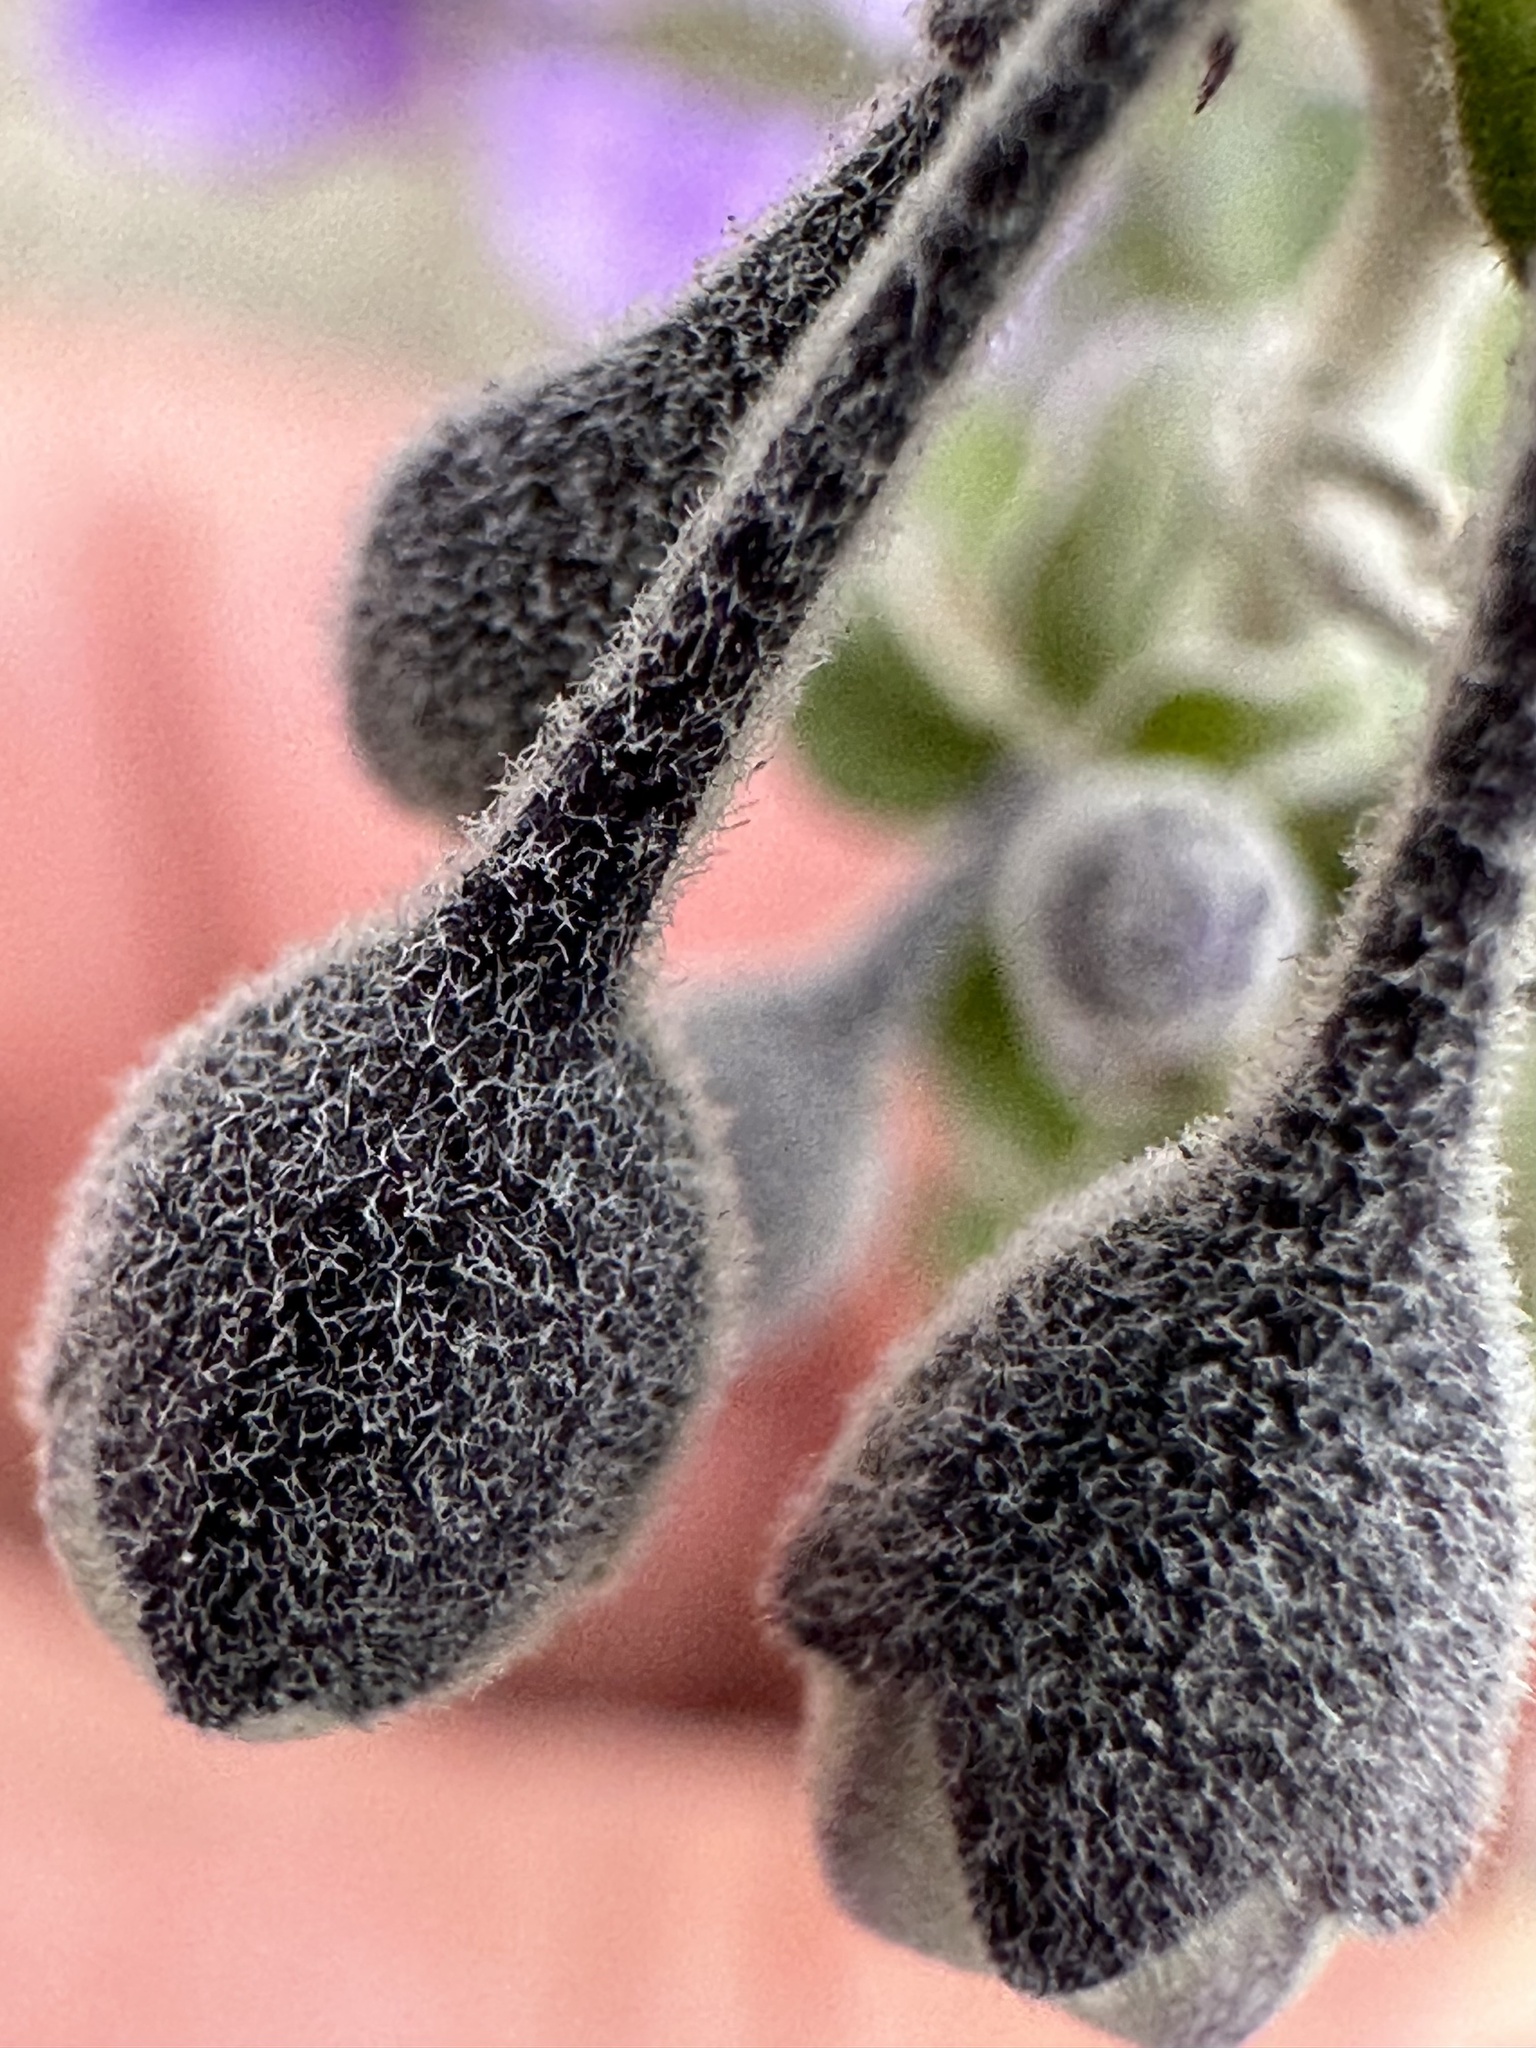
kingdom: Plantae
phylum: Tracheophyta
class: Magnoliopsida
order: Solanales
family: Solanaceae
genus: Solanum
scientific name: Solanum umbelliferum
